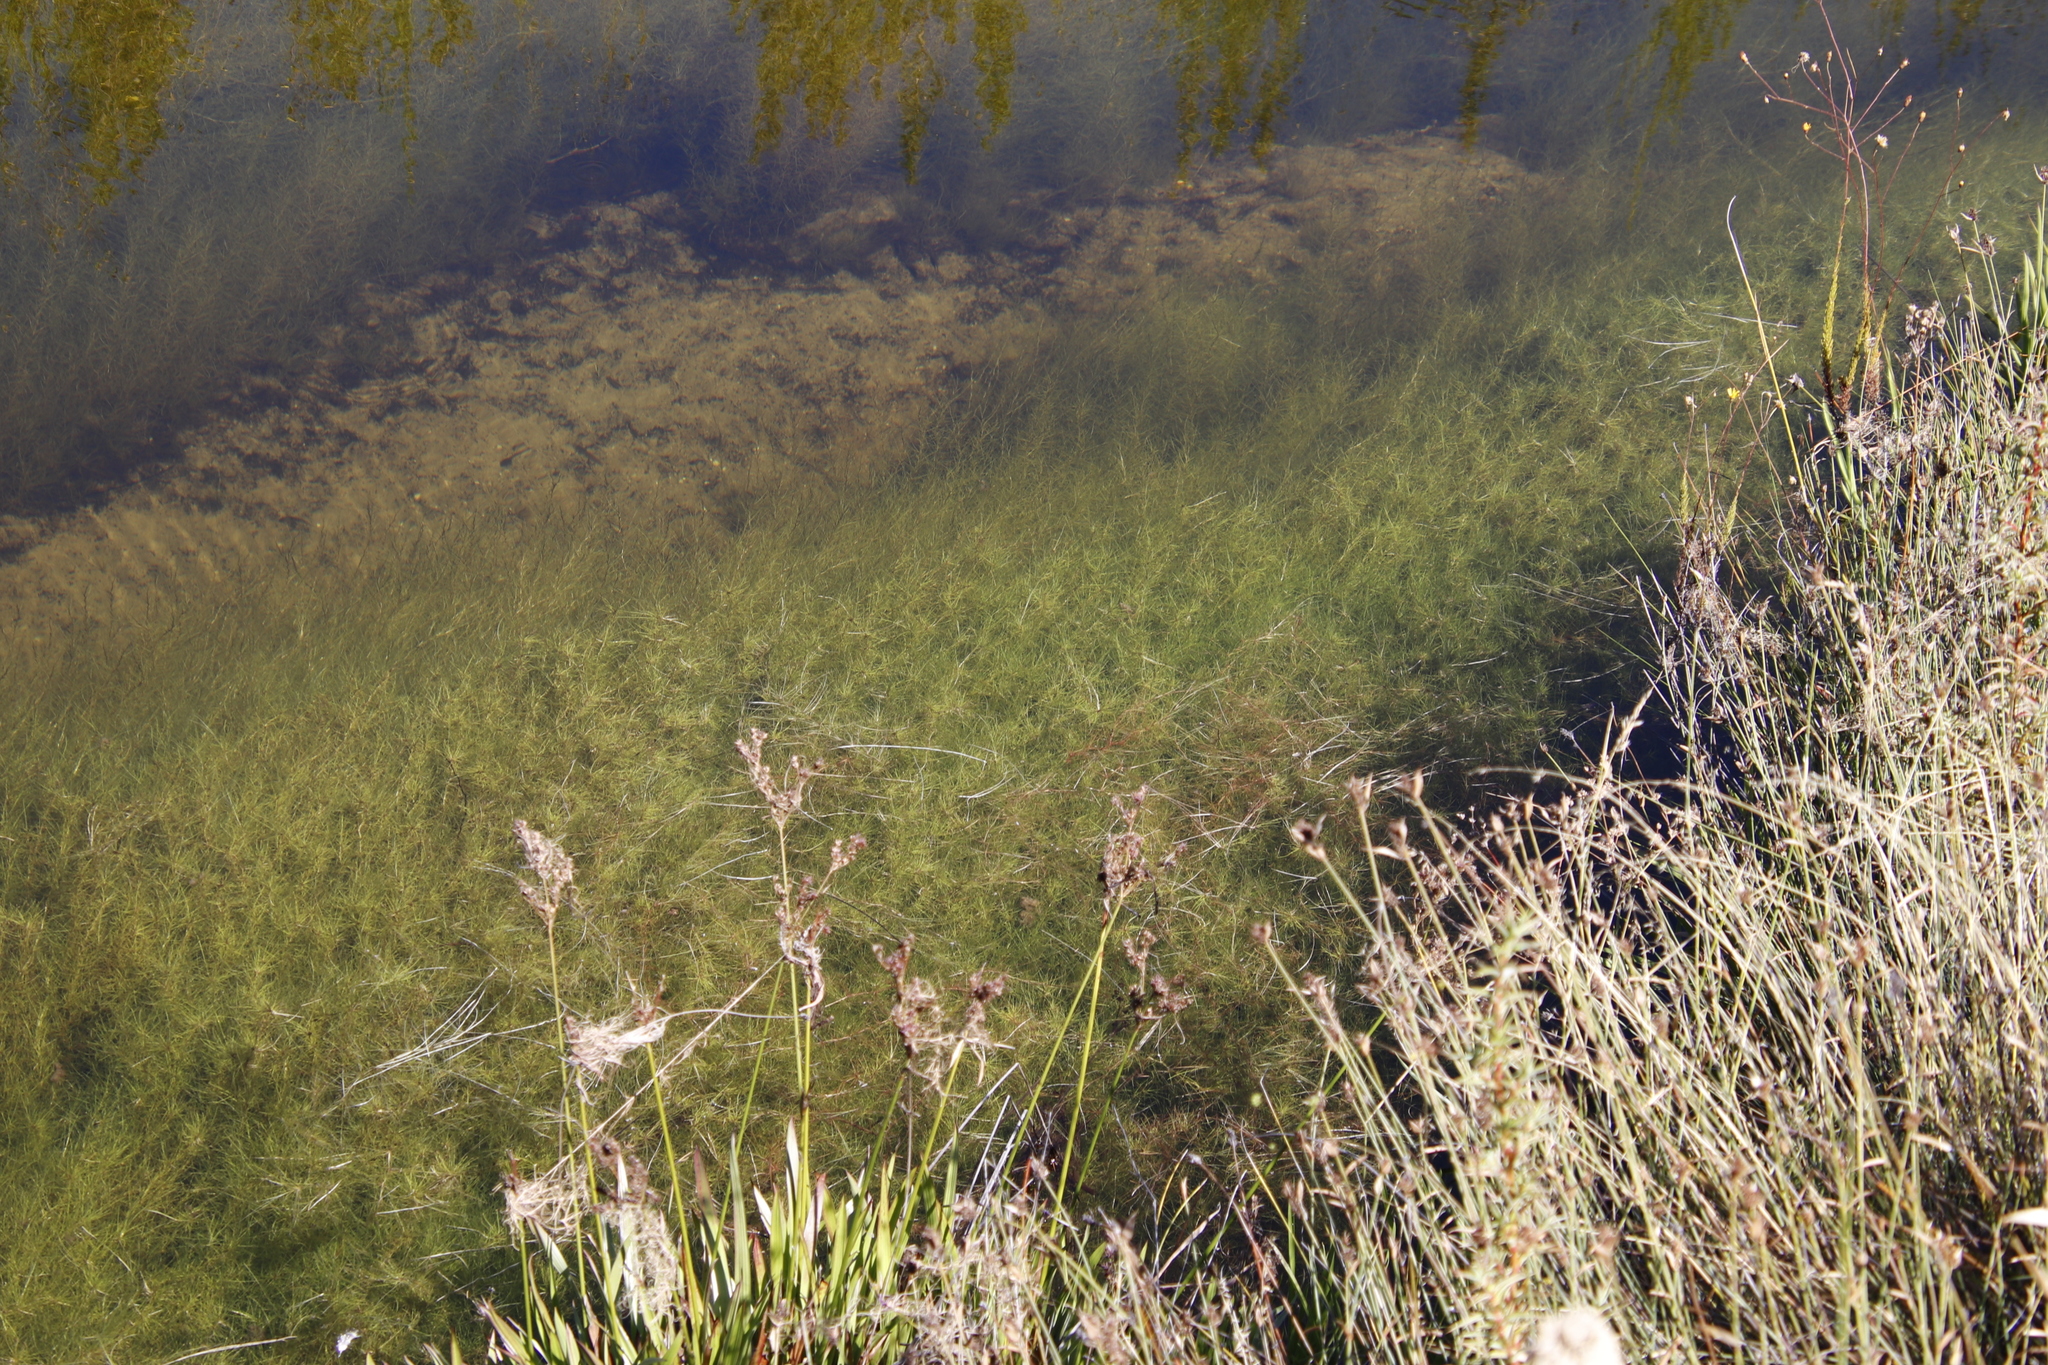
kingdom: Plantae
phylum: Tracheophyta
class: Liliopsida
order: Poales
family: Cyperaceae
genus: Isolepis
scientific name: Isolepis rubicunda
